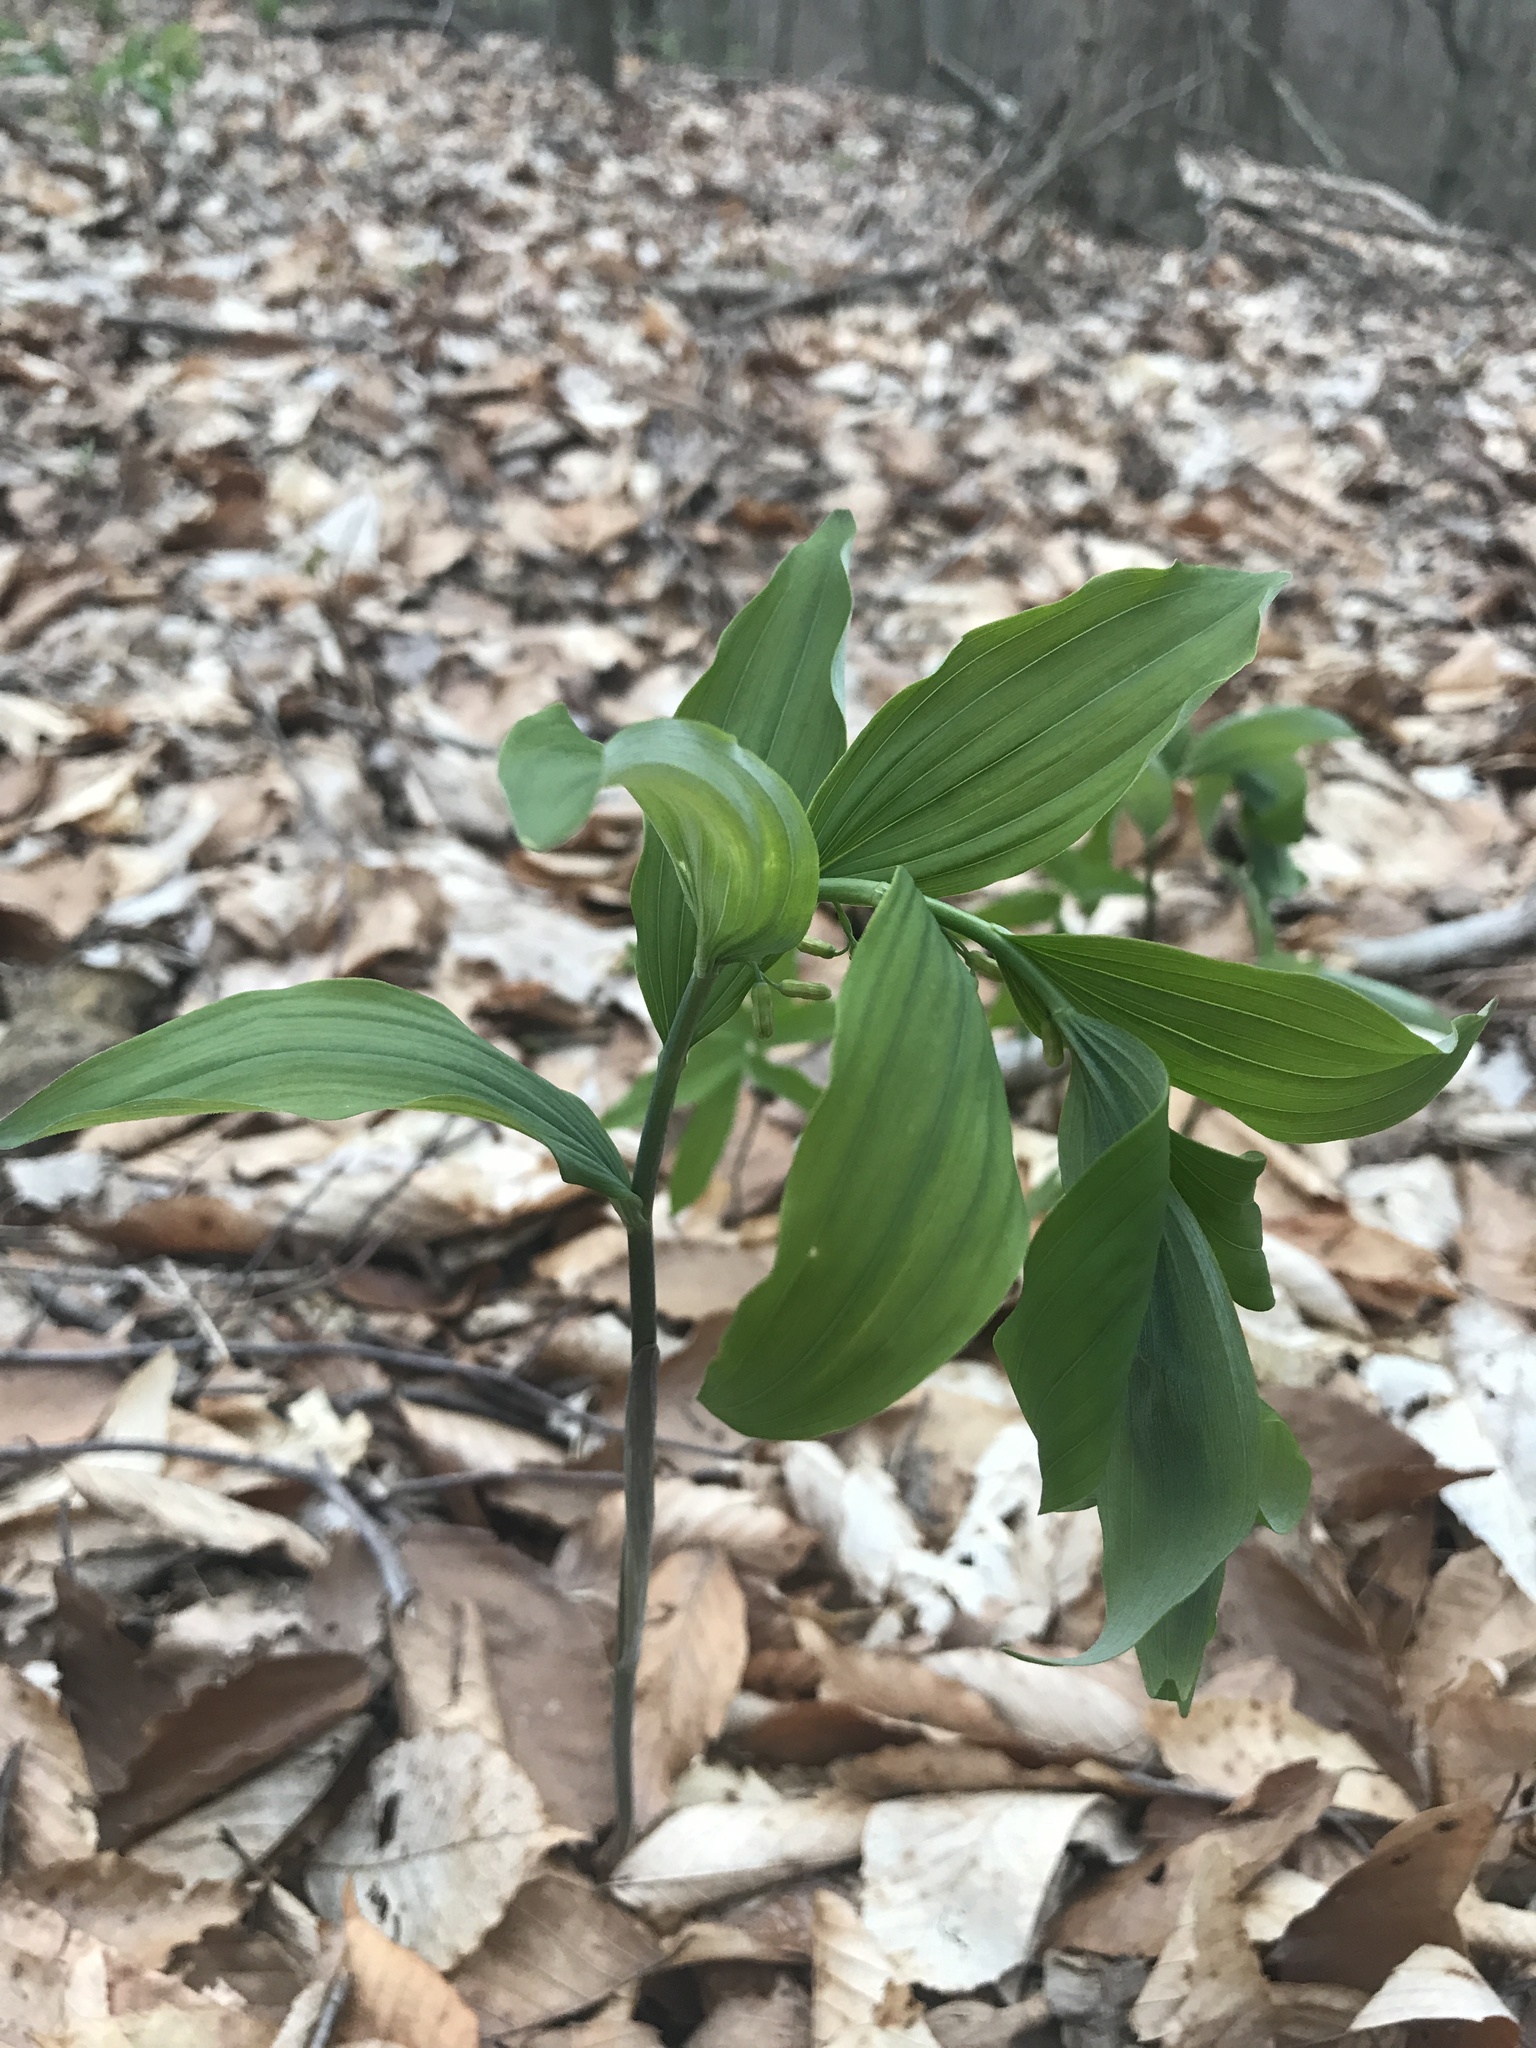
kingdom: Plantae
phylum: Tracheophyta
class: Liliopsida
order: Asparagales
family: Asparagaceae
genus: Polygonatum
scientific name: Polygonatum pubescens
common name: Downy solomon's seal
